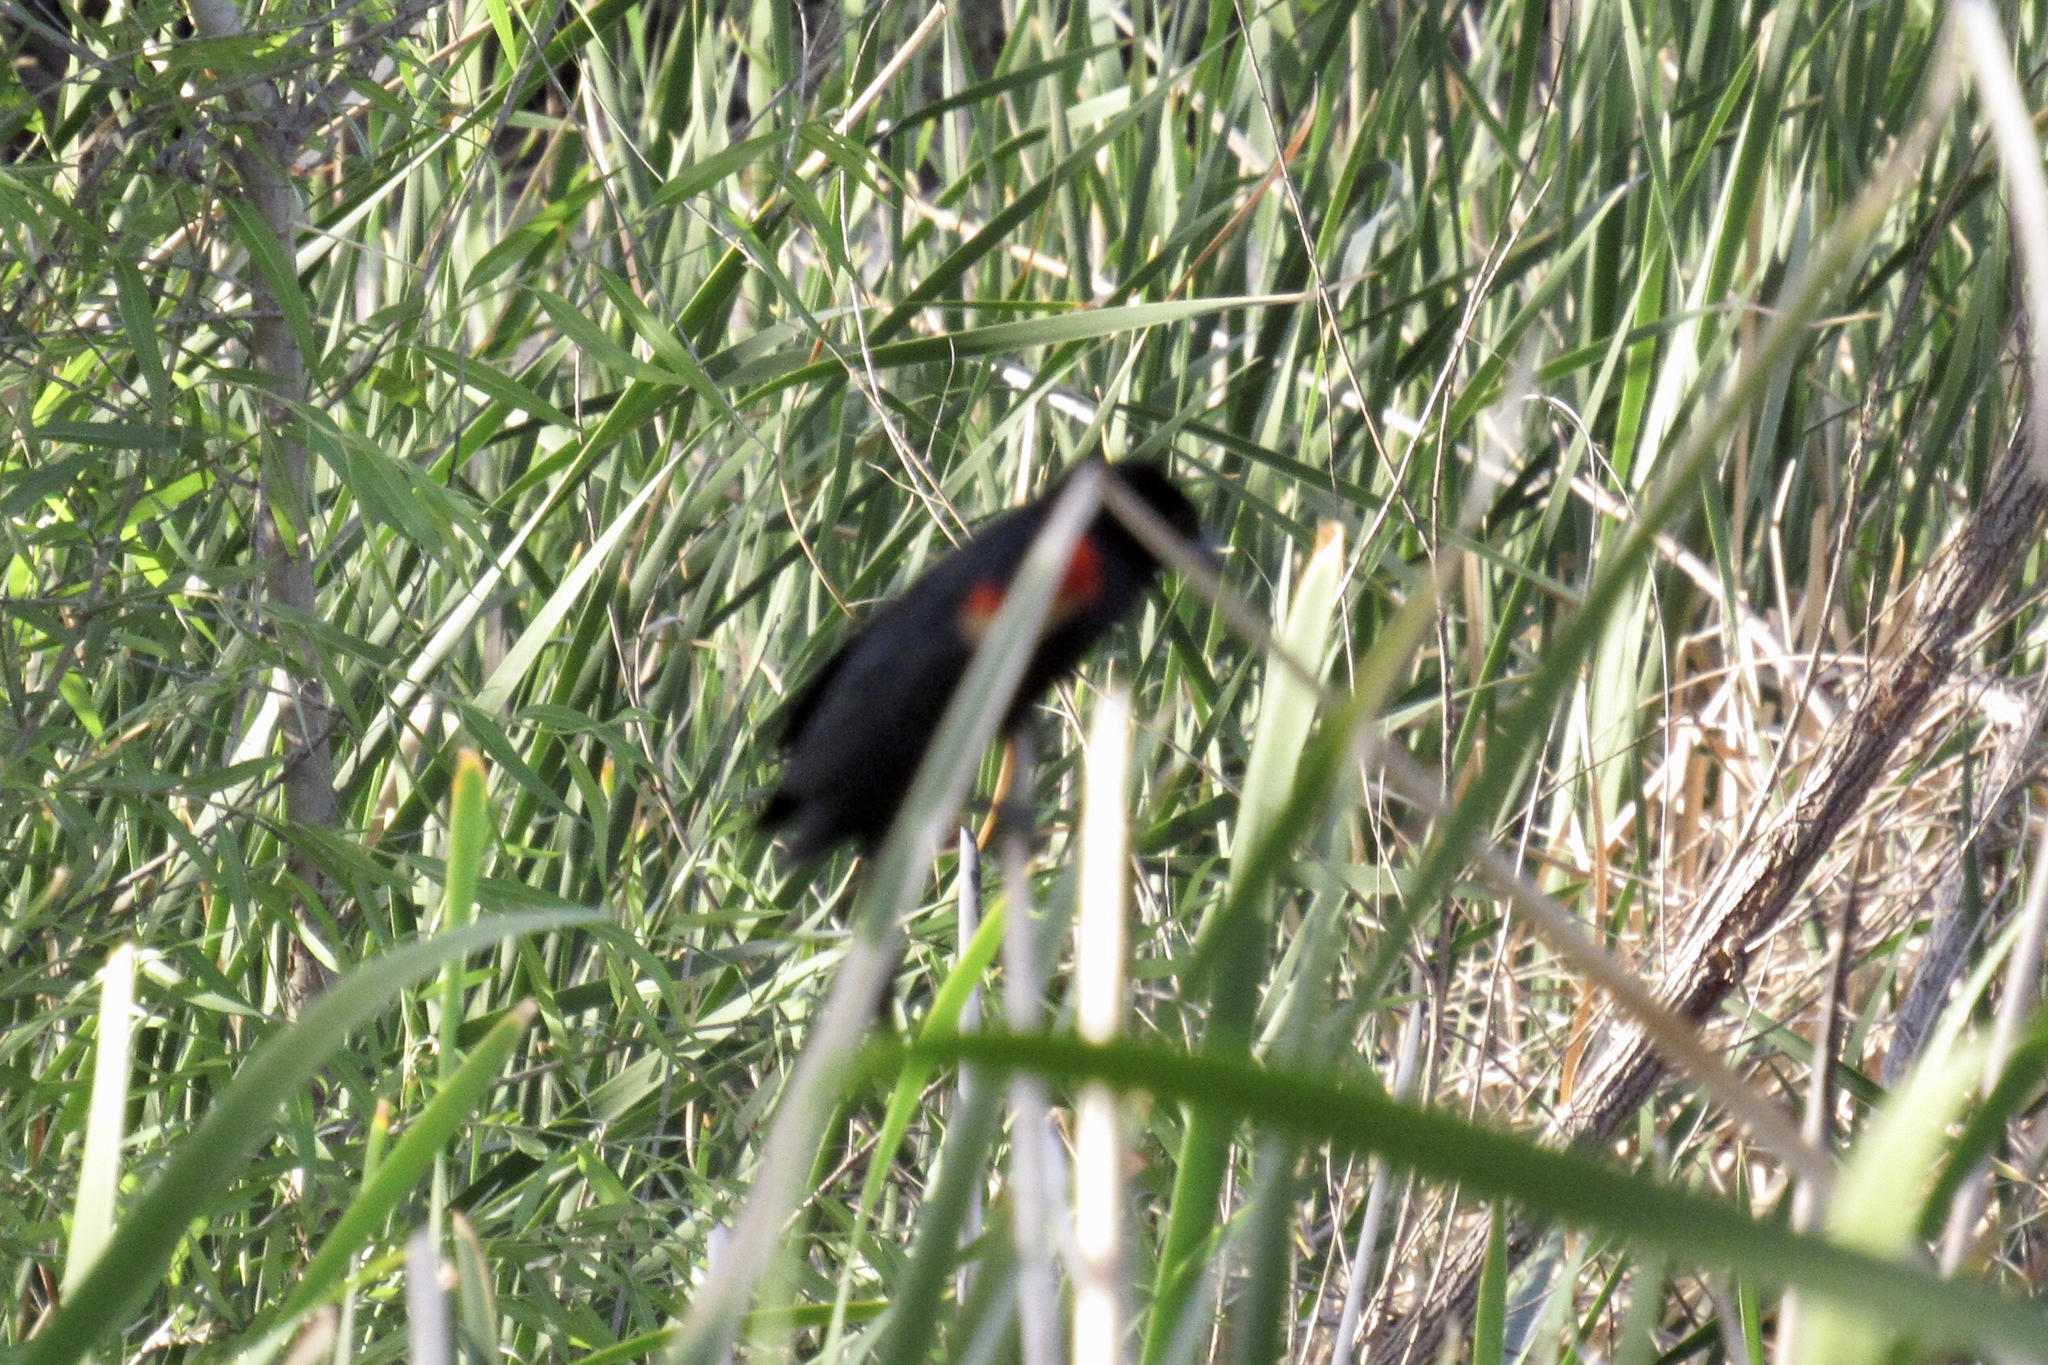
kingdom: Animalia
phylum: Chordata
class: Aves
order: Passeriformes
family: Icteridae
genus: Agelaius
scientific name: Agelaius phoeniceus
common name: Red-winged blackbird
